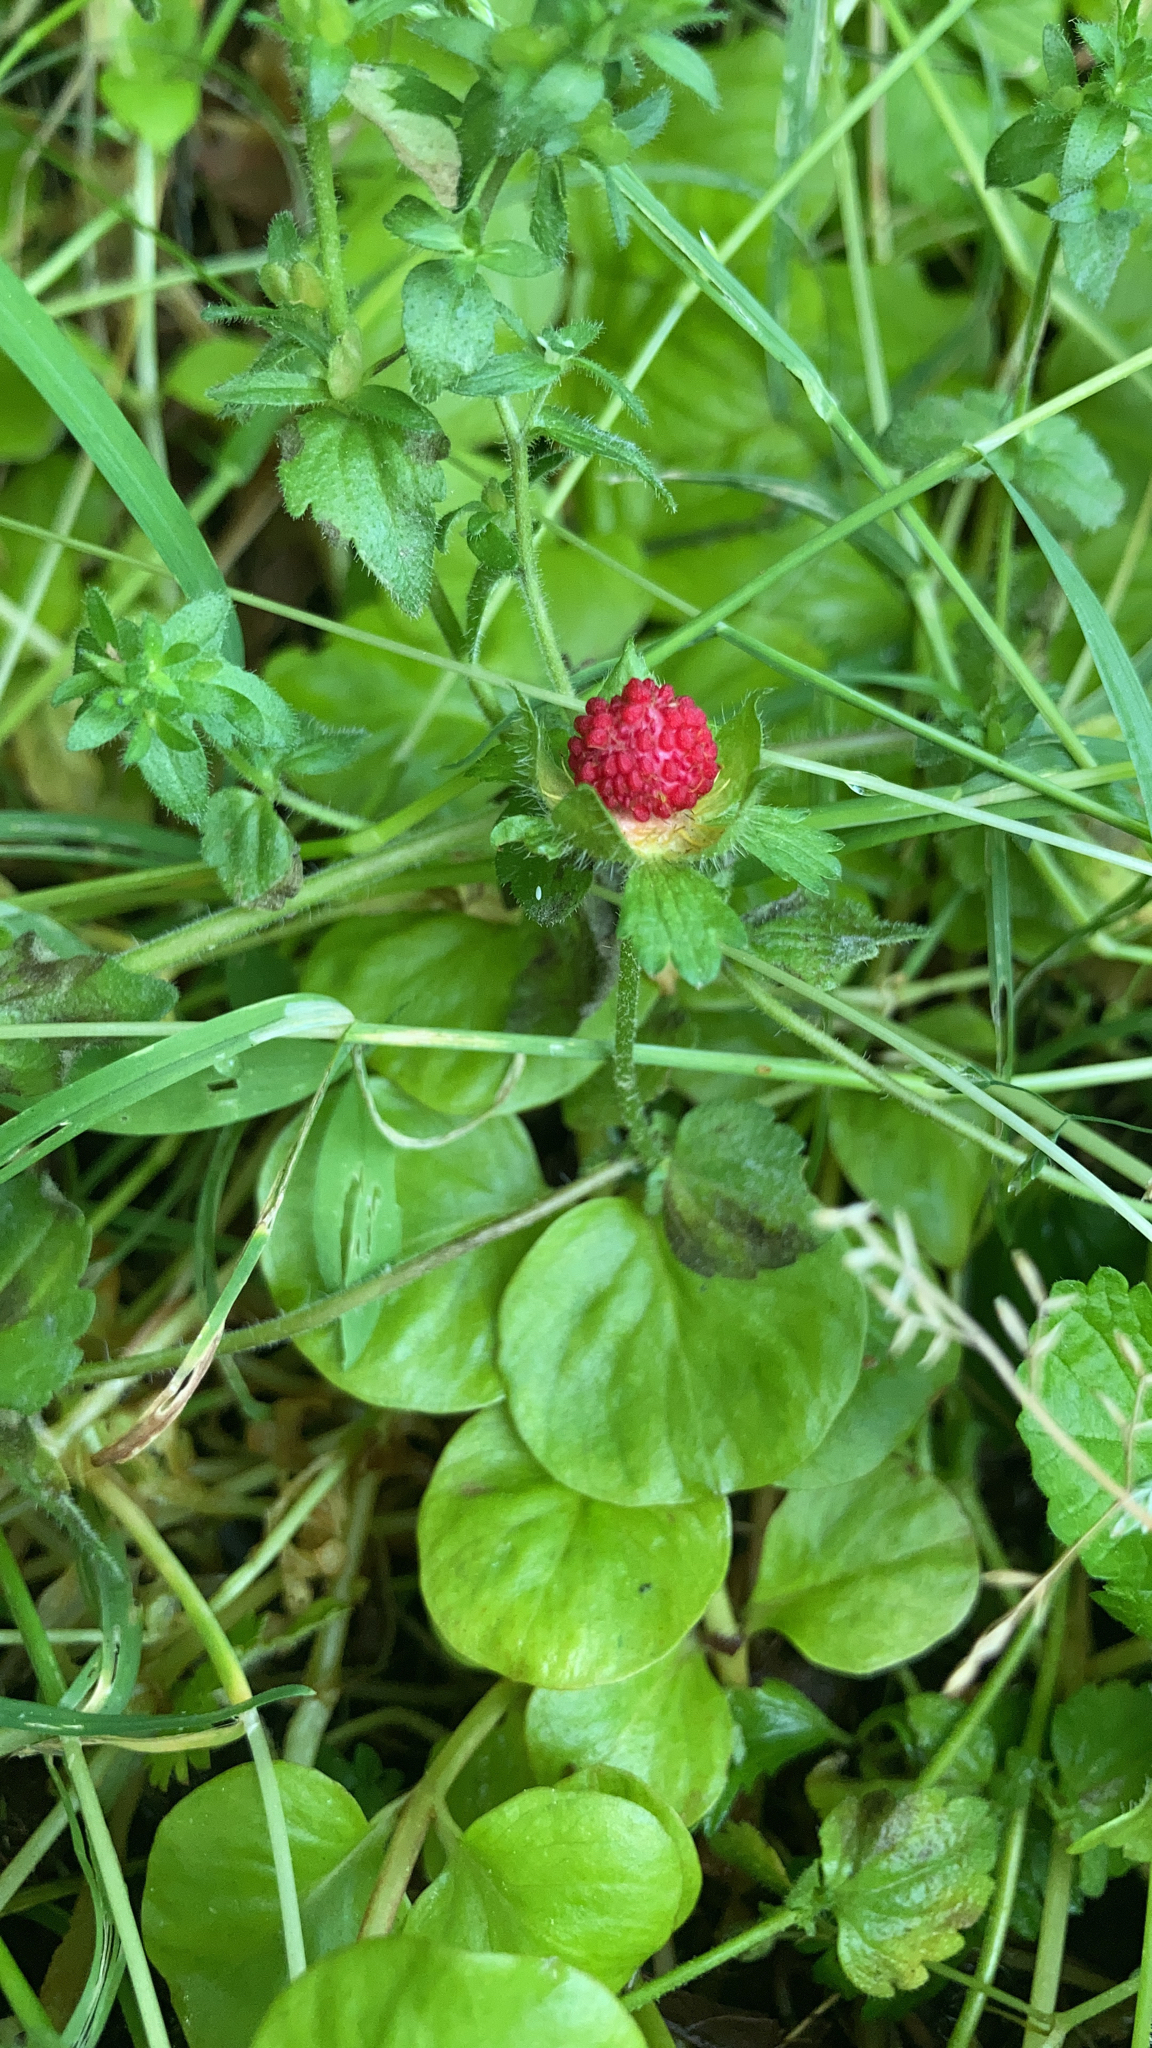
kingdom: Plantae
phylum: Tracheophyta
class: Magnoliopsida
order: Rosales
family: Rosaceae
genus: Potentilla
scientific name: Potentilla indica
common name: Yellow-flowered strawberry
